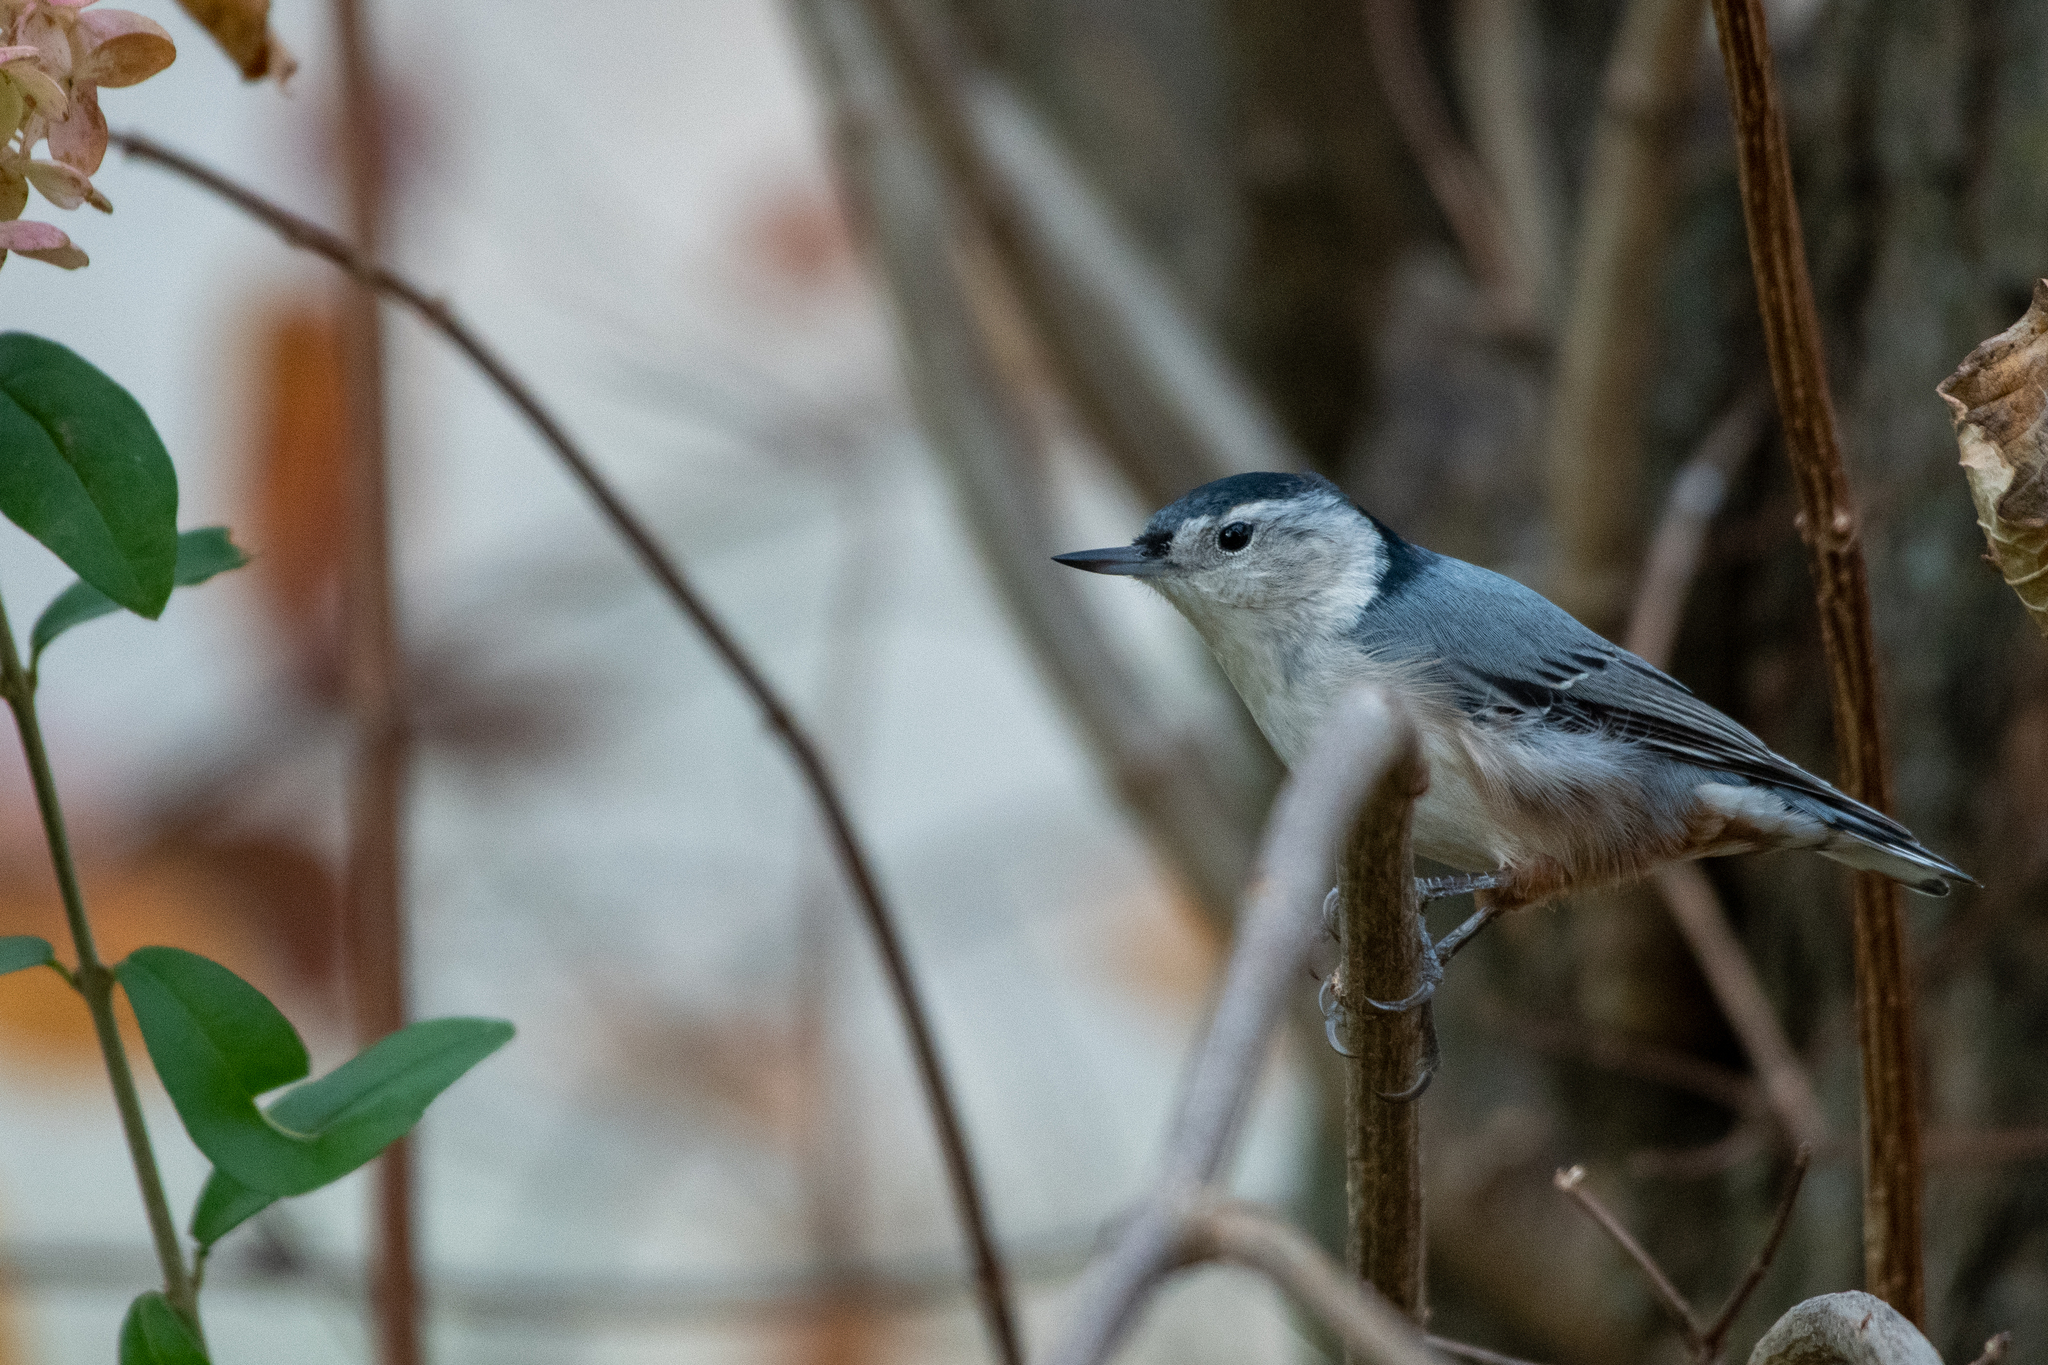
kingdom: Animalia
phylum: Chordata
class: Aves
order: Passeriformes
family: Sittidae
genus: Sitta
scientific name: Sitta carolinensis
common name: White-breasted nuthatch
